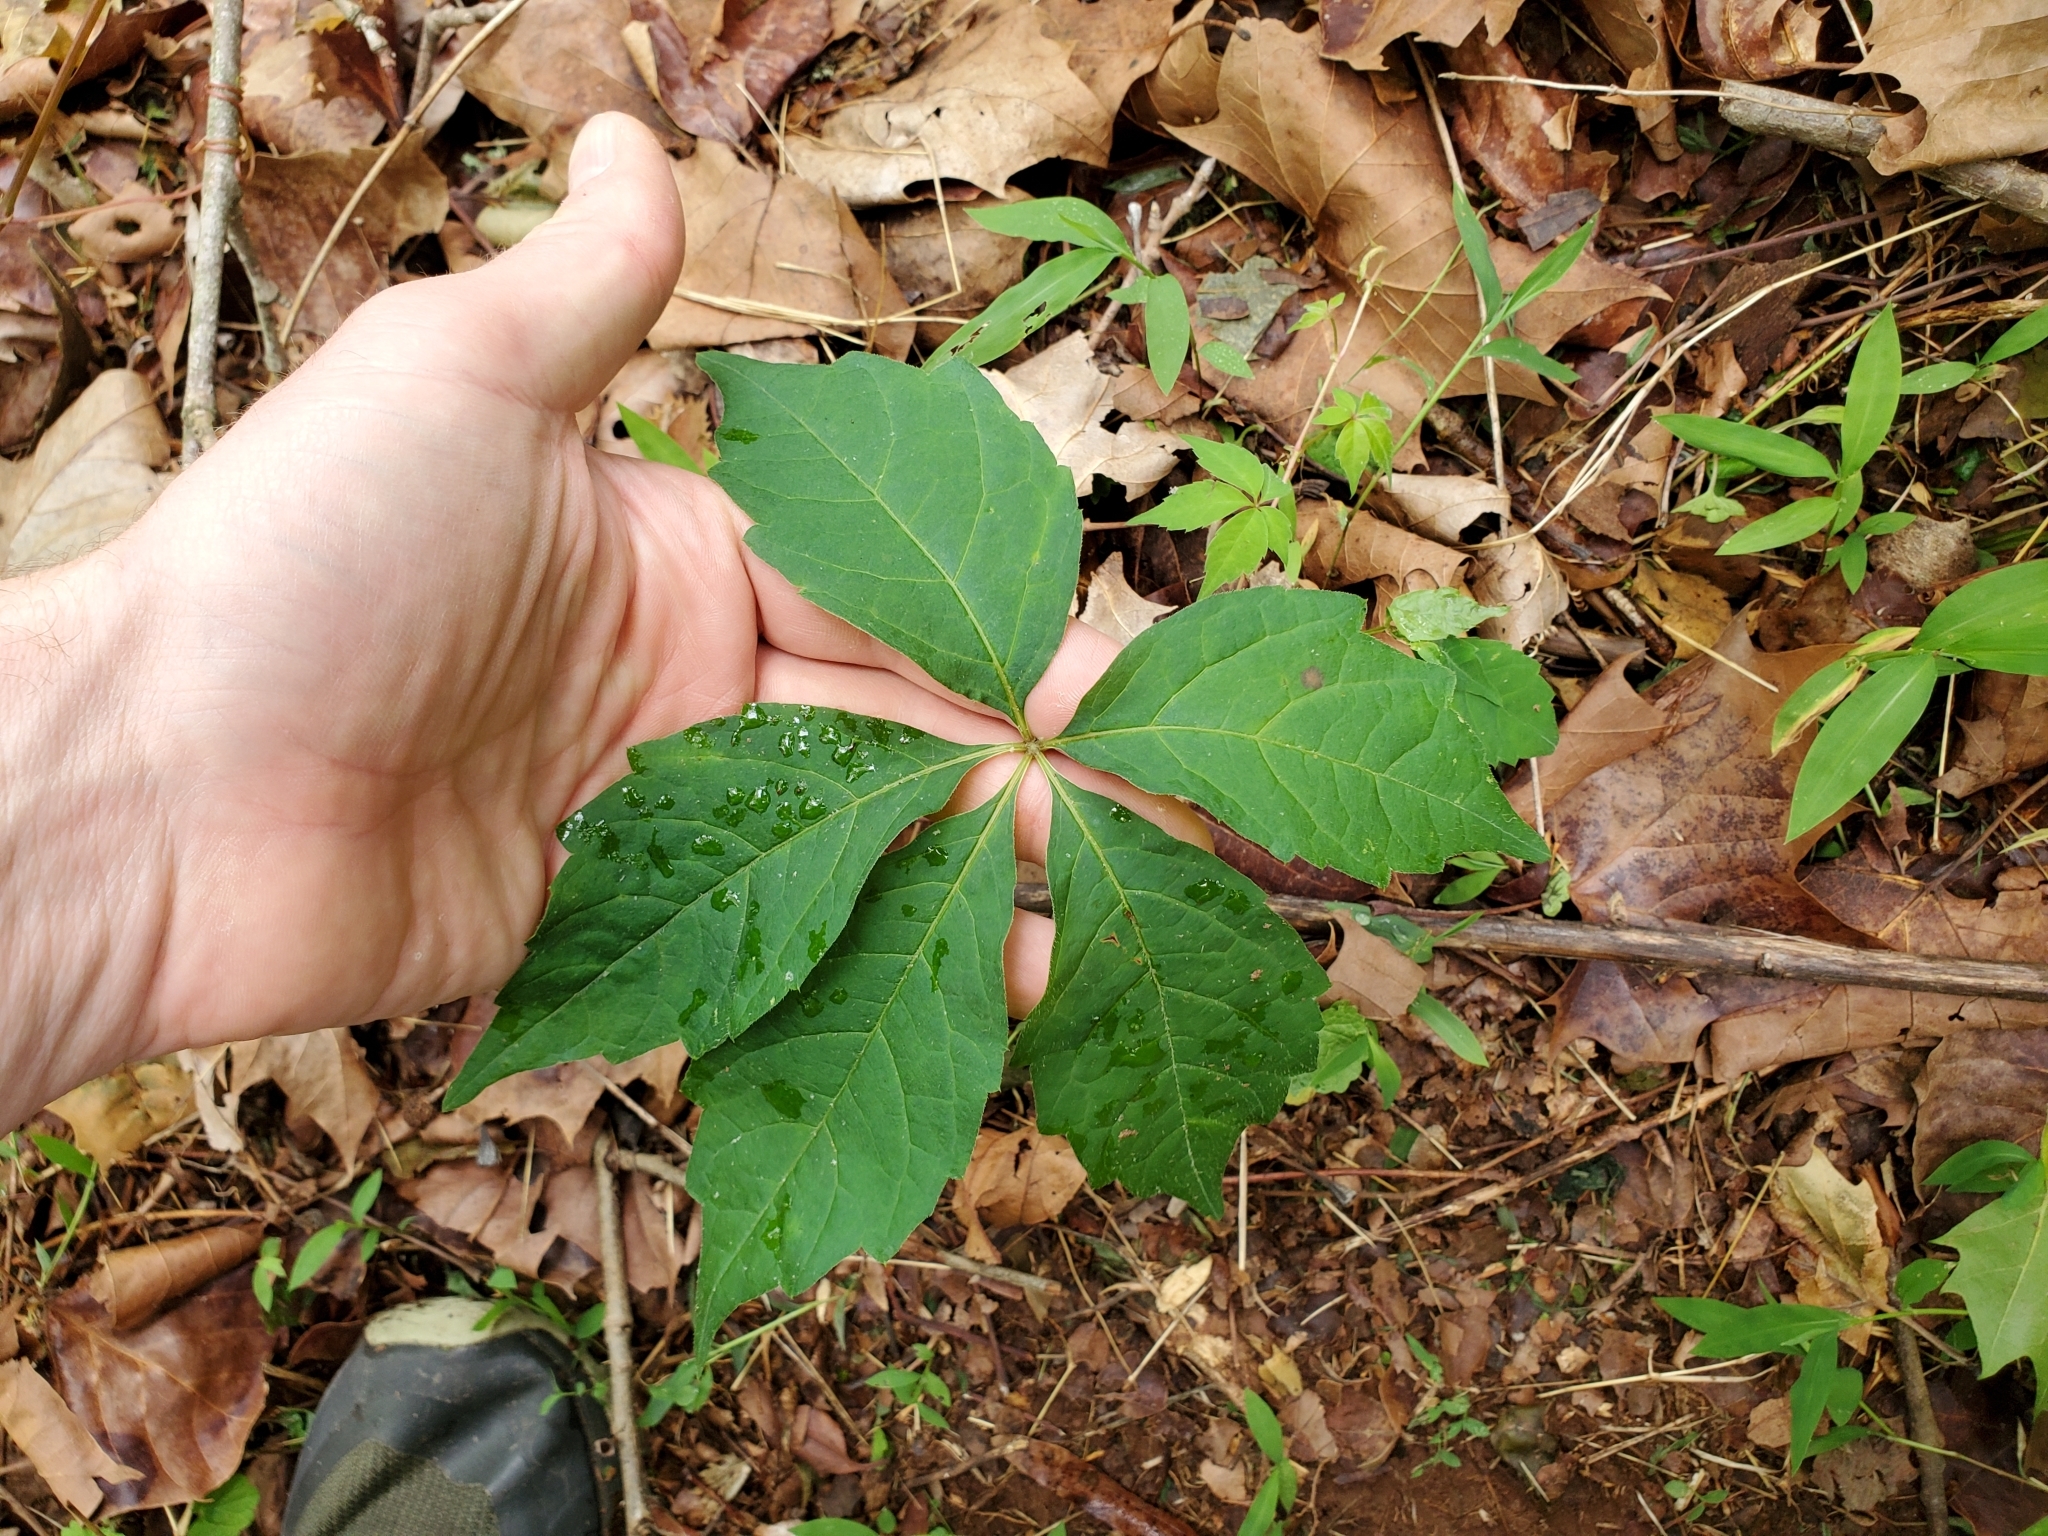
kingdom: Plantae
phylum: Tracheophyta
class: Magnoliopsida
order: Vitales
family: Vitaceae
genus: Parthenocissus
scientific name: Parthenocissus quinquefolia
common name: Virginia-creeper
